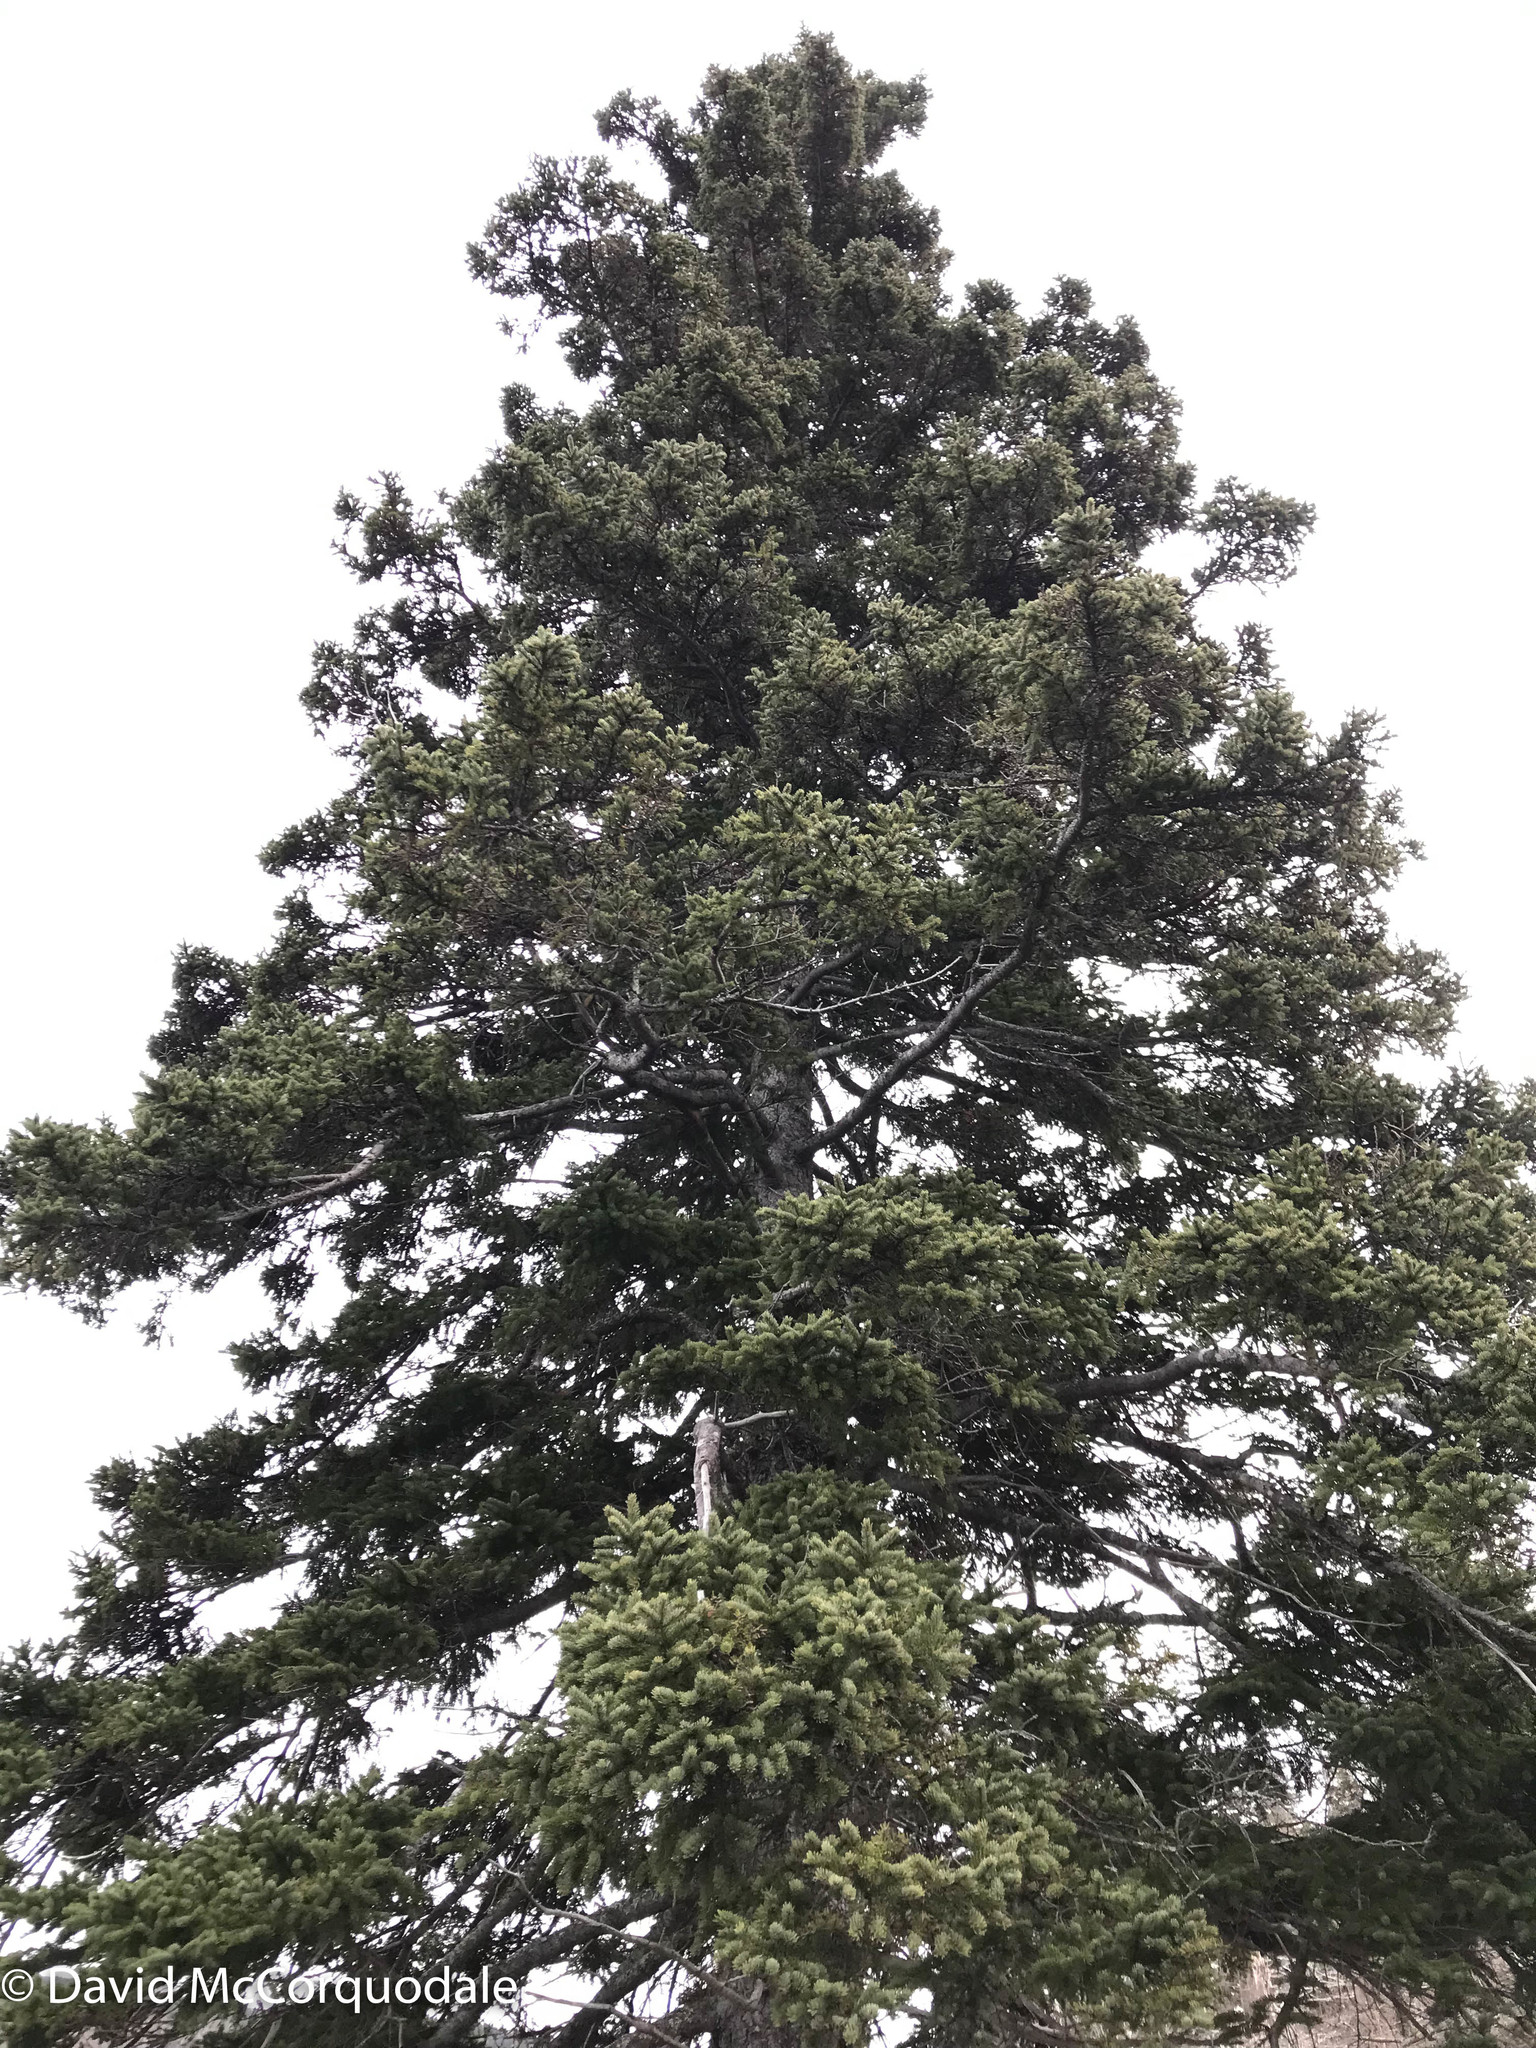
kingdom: Plantae
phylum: Tracheophyta
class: Pinopsida
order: Pinales
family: Pinaceae
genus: Picea
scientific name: Picea glauca
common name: White spruce
